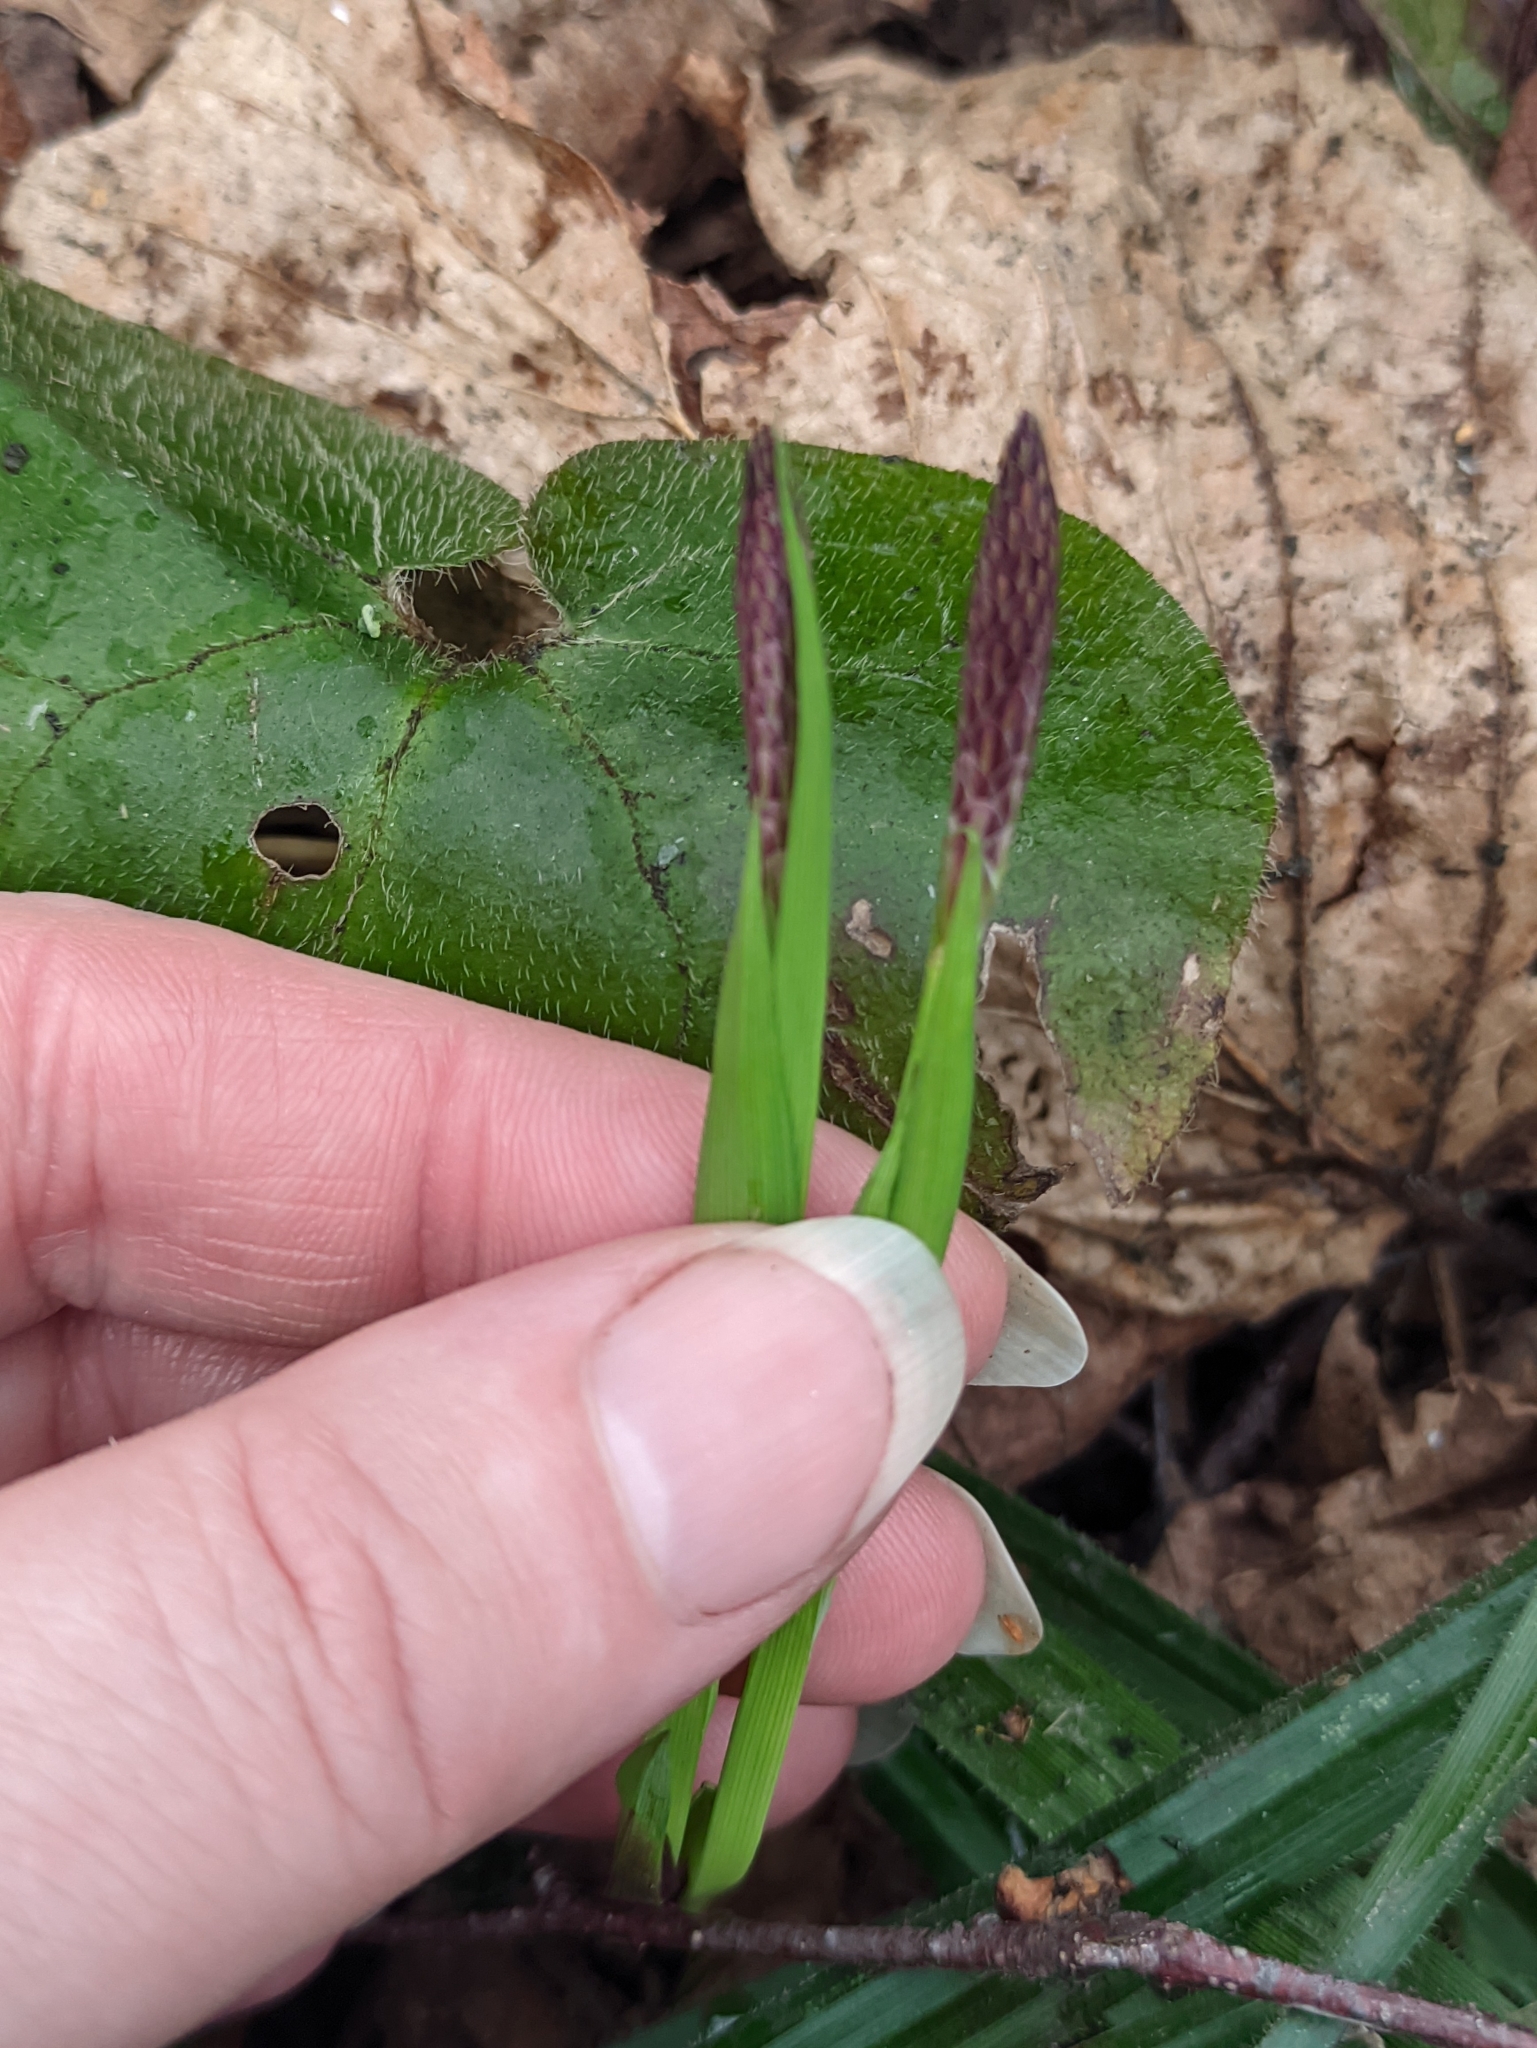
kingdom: Plantae
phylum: Tracheophyta
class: Liliopsida
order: Poales
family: Cyperaceae
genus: Carex
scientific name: Carex pilosa
